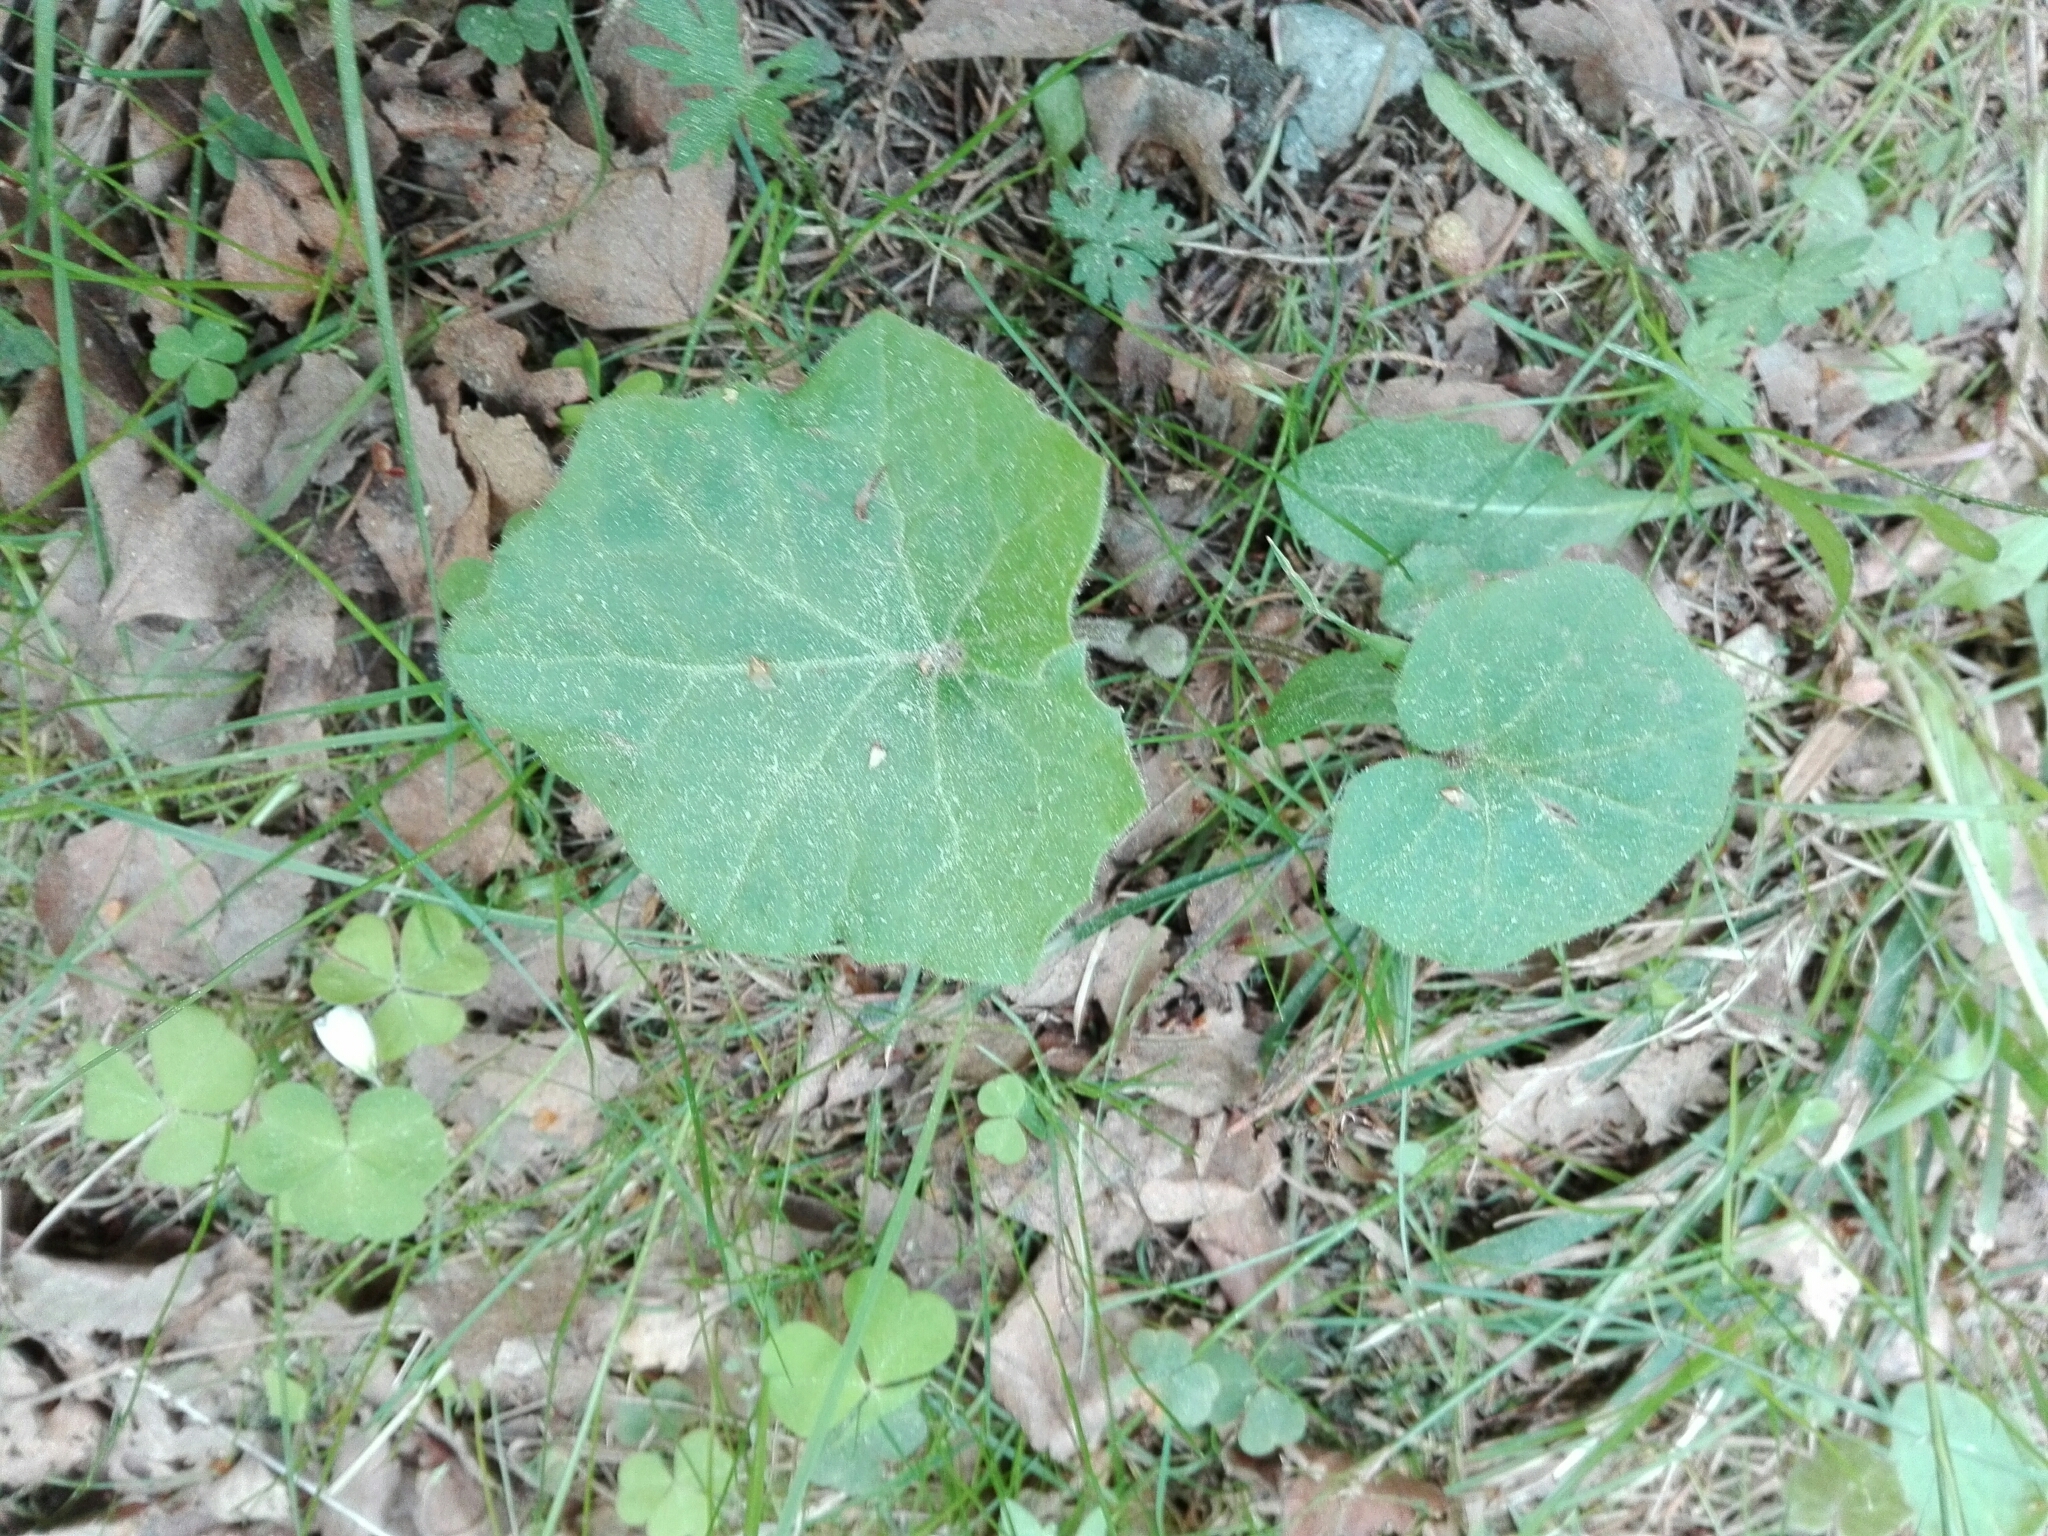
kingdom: Plantae
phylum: Tracheophyta
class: Magnoliopsida
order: Asterales
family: Asteraceae
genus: Tussilago
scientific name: Tussilago farfara
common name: Coltsfoot
